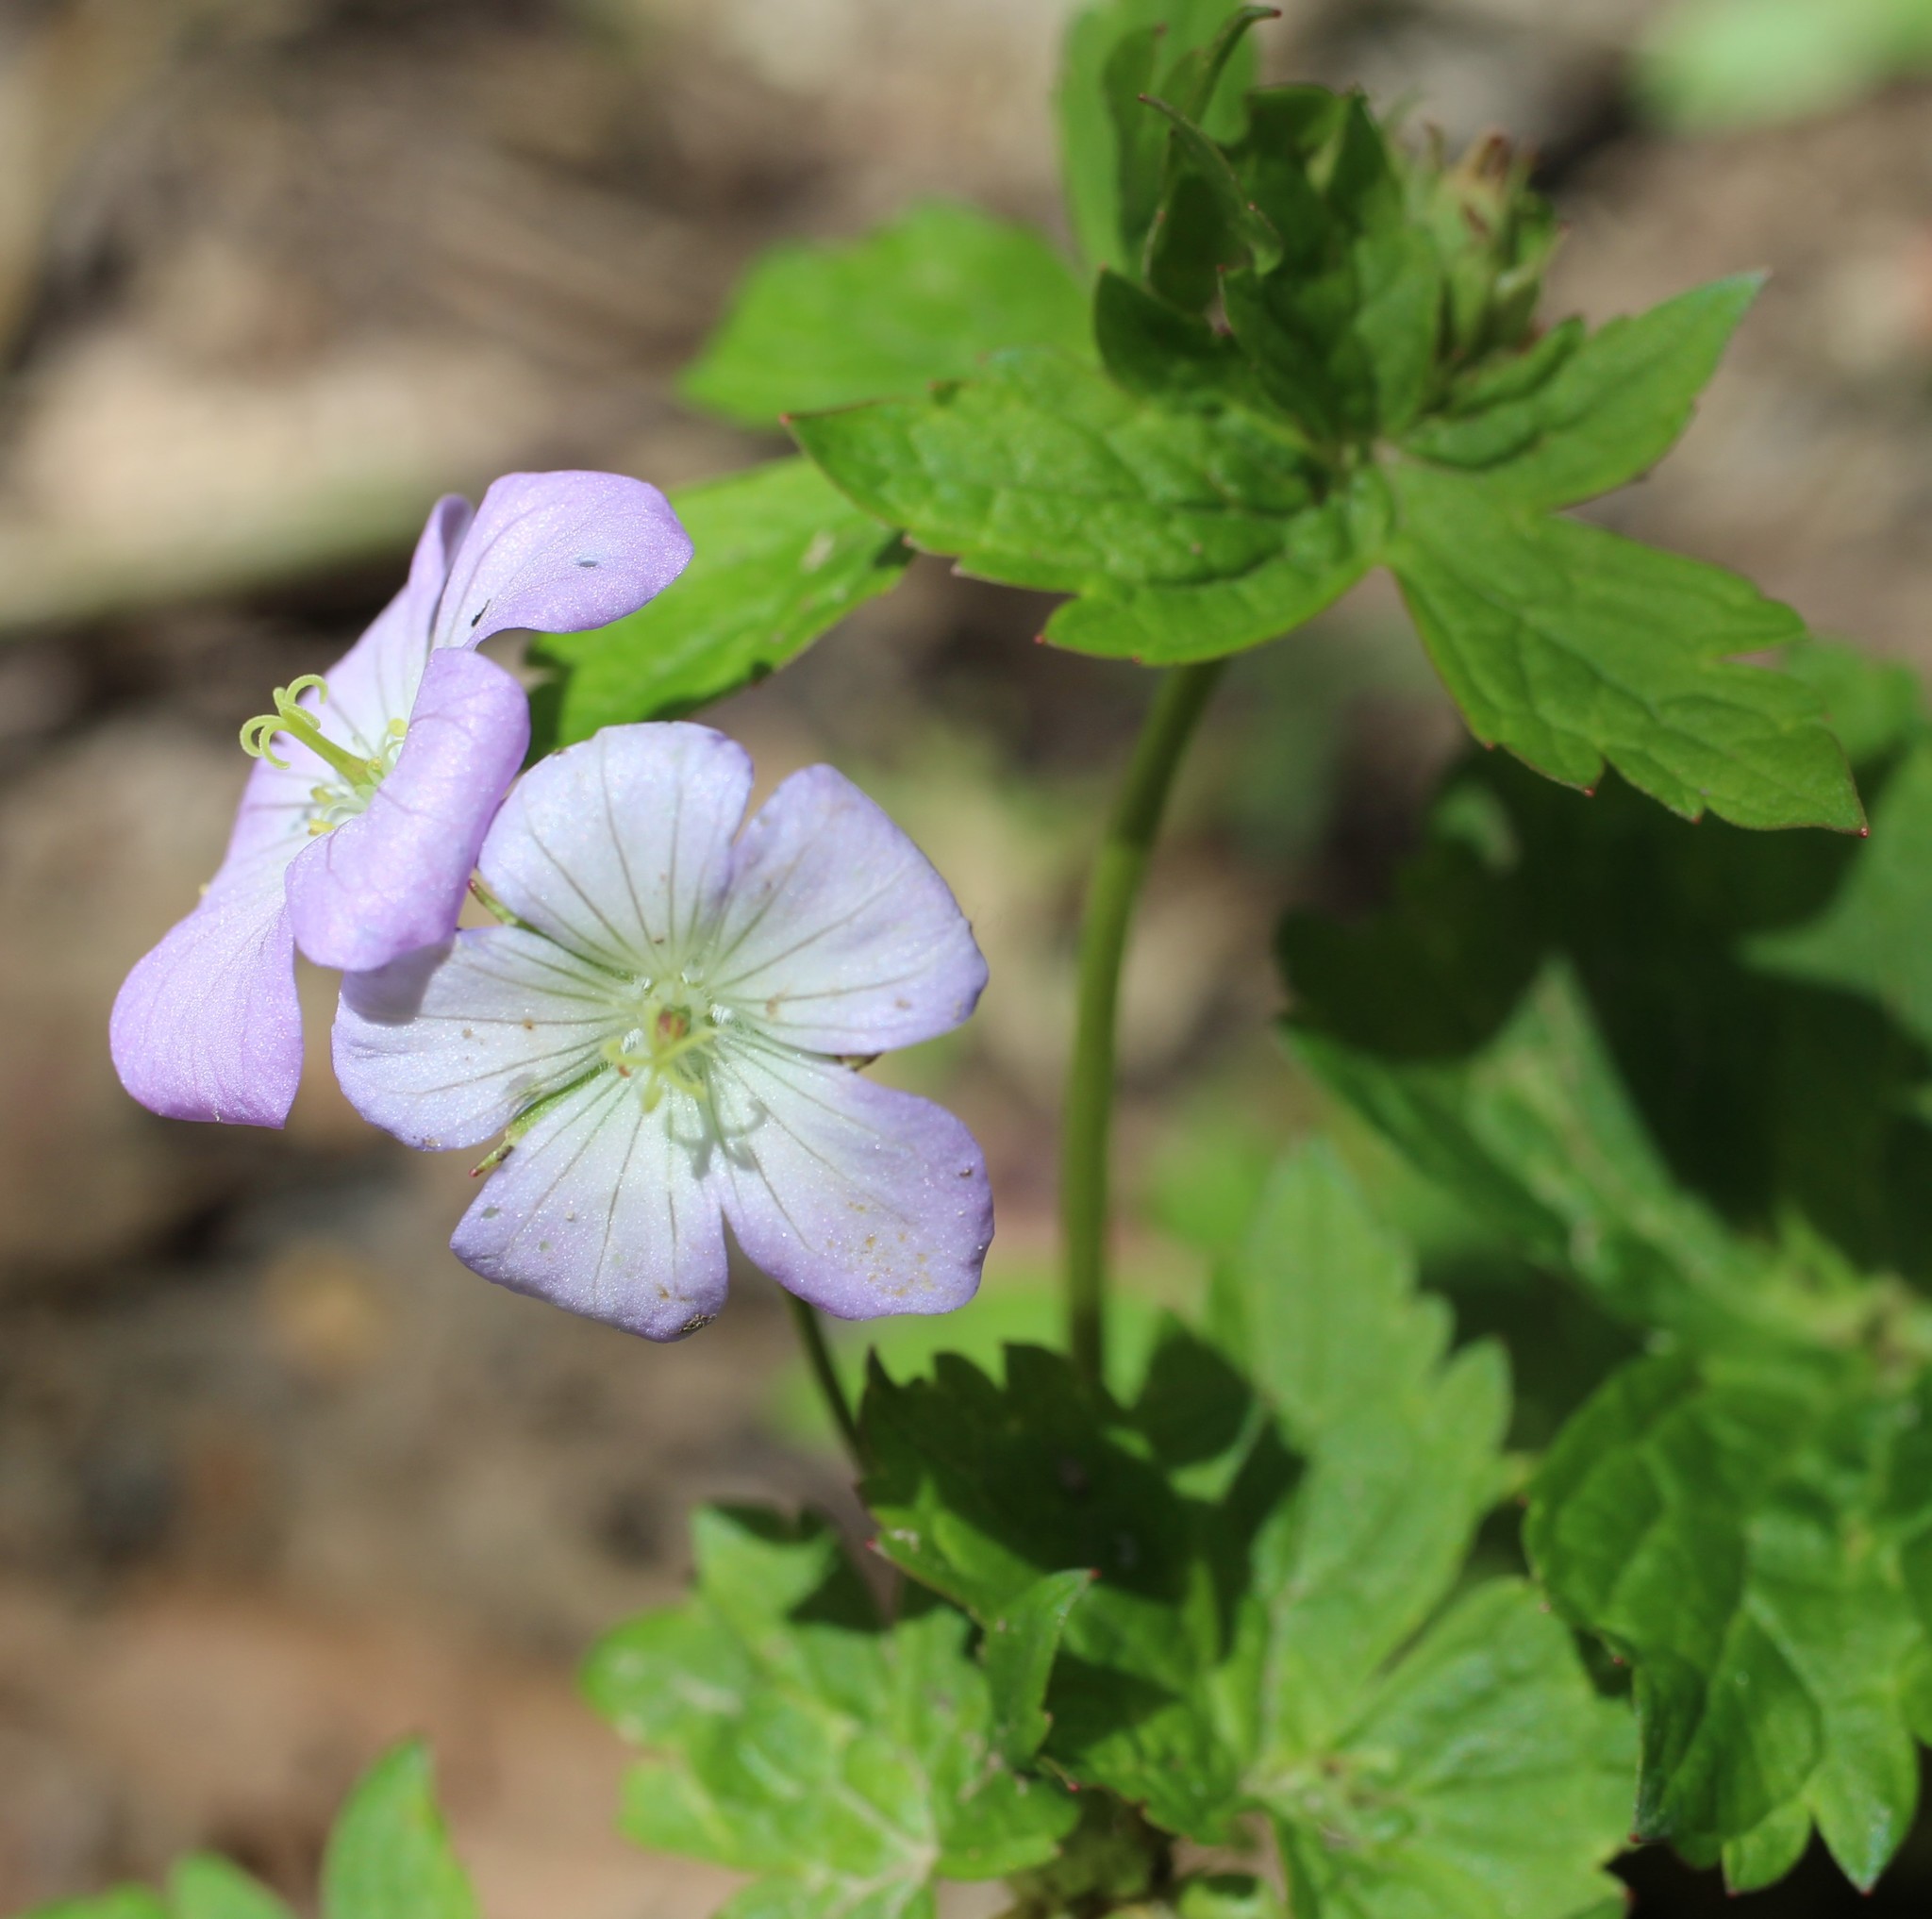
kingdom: Plantae
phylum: Tracheophyta
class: Magnoliopsida
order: Geraniales
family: Geraniaceae
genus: Geranium
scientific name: Geranium maculatum
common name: Spotted geranium
